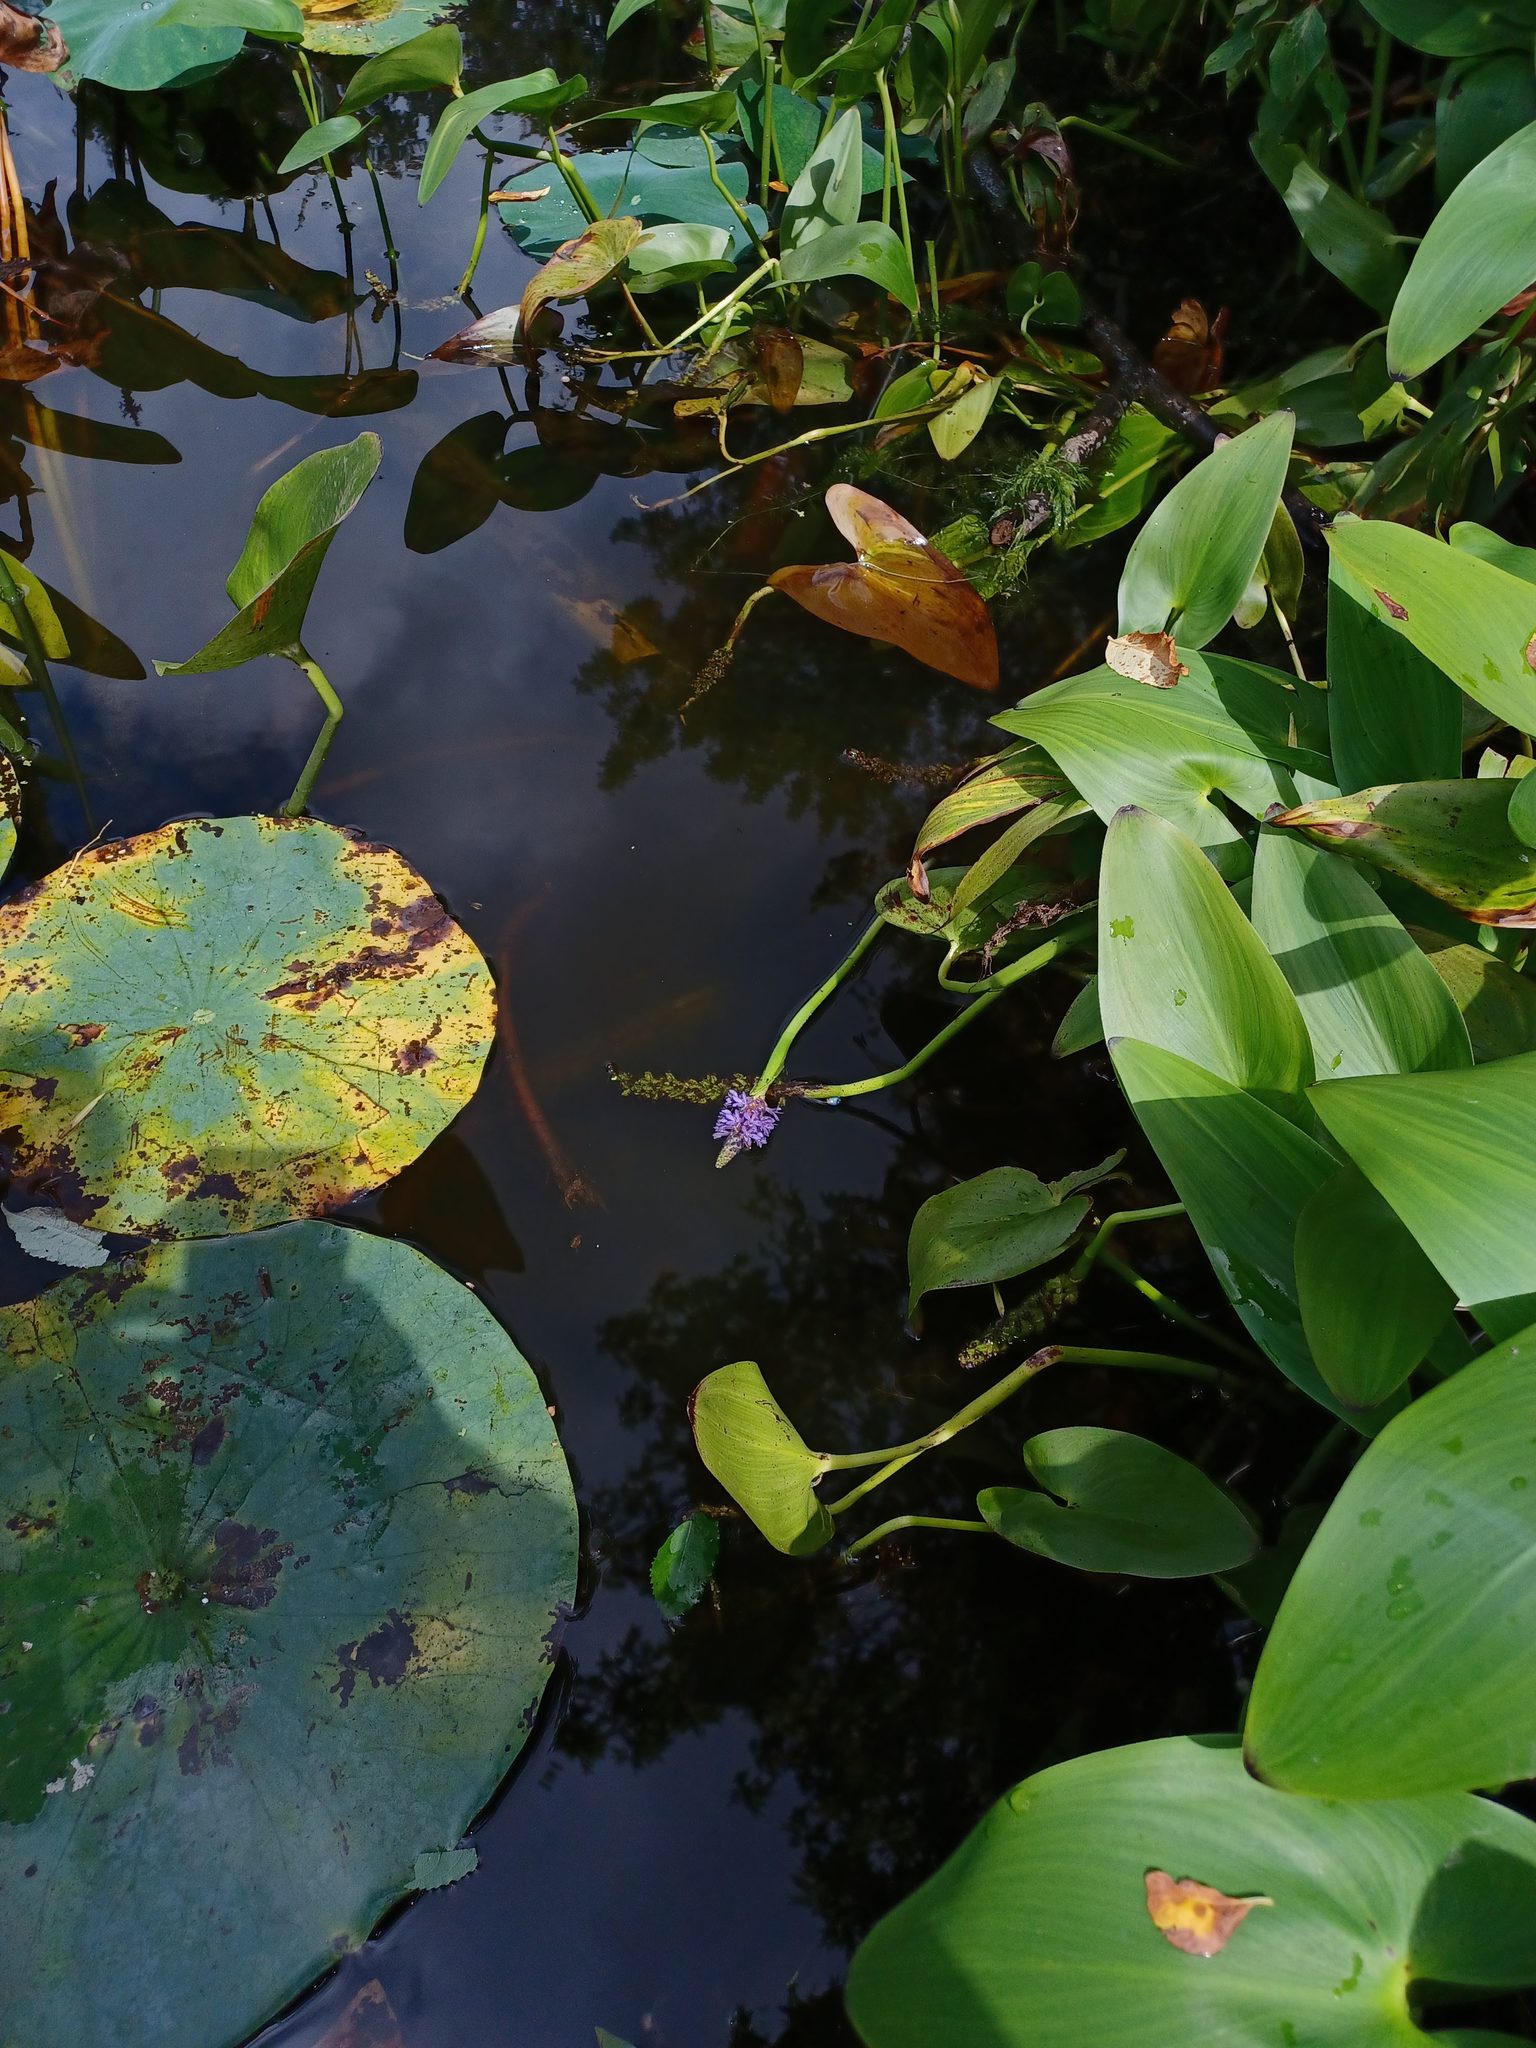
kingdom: Plantae
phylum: Tracheophyta
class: Liliopsida
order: Commelinales
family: Pontederiaceae
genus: Pontederia
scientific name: Pontederia cordata
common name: Pickerelweed
